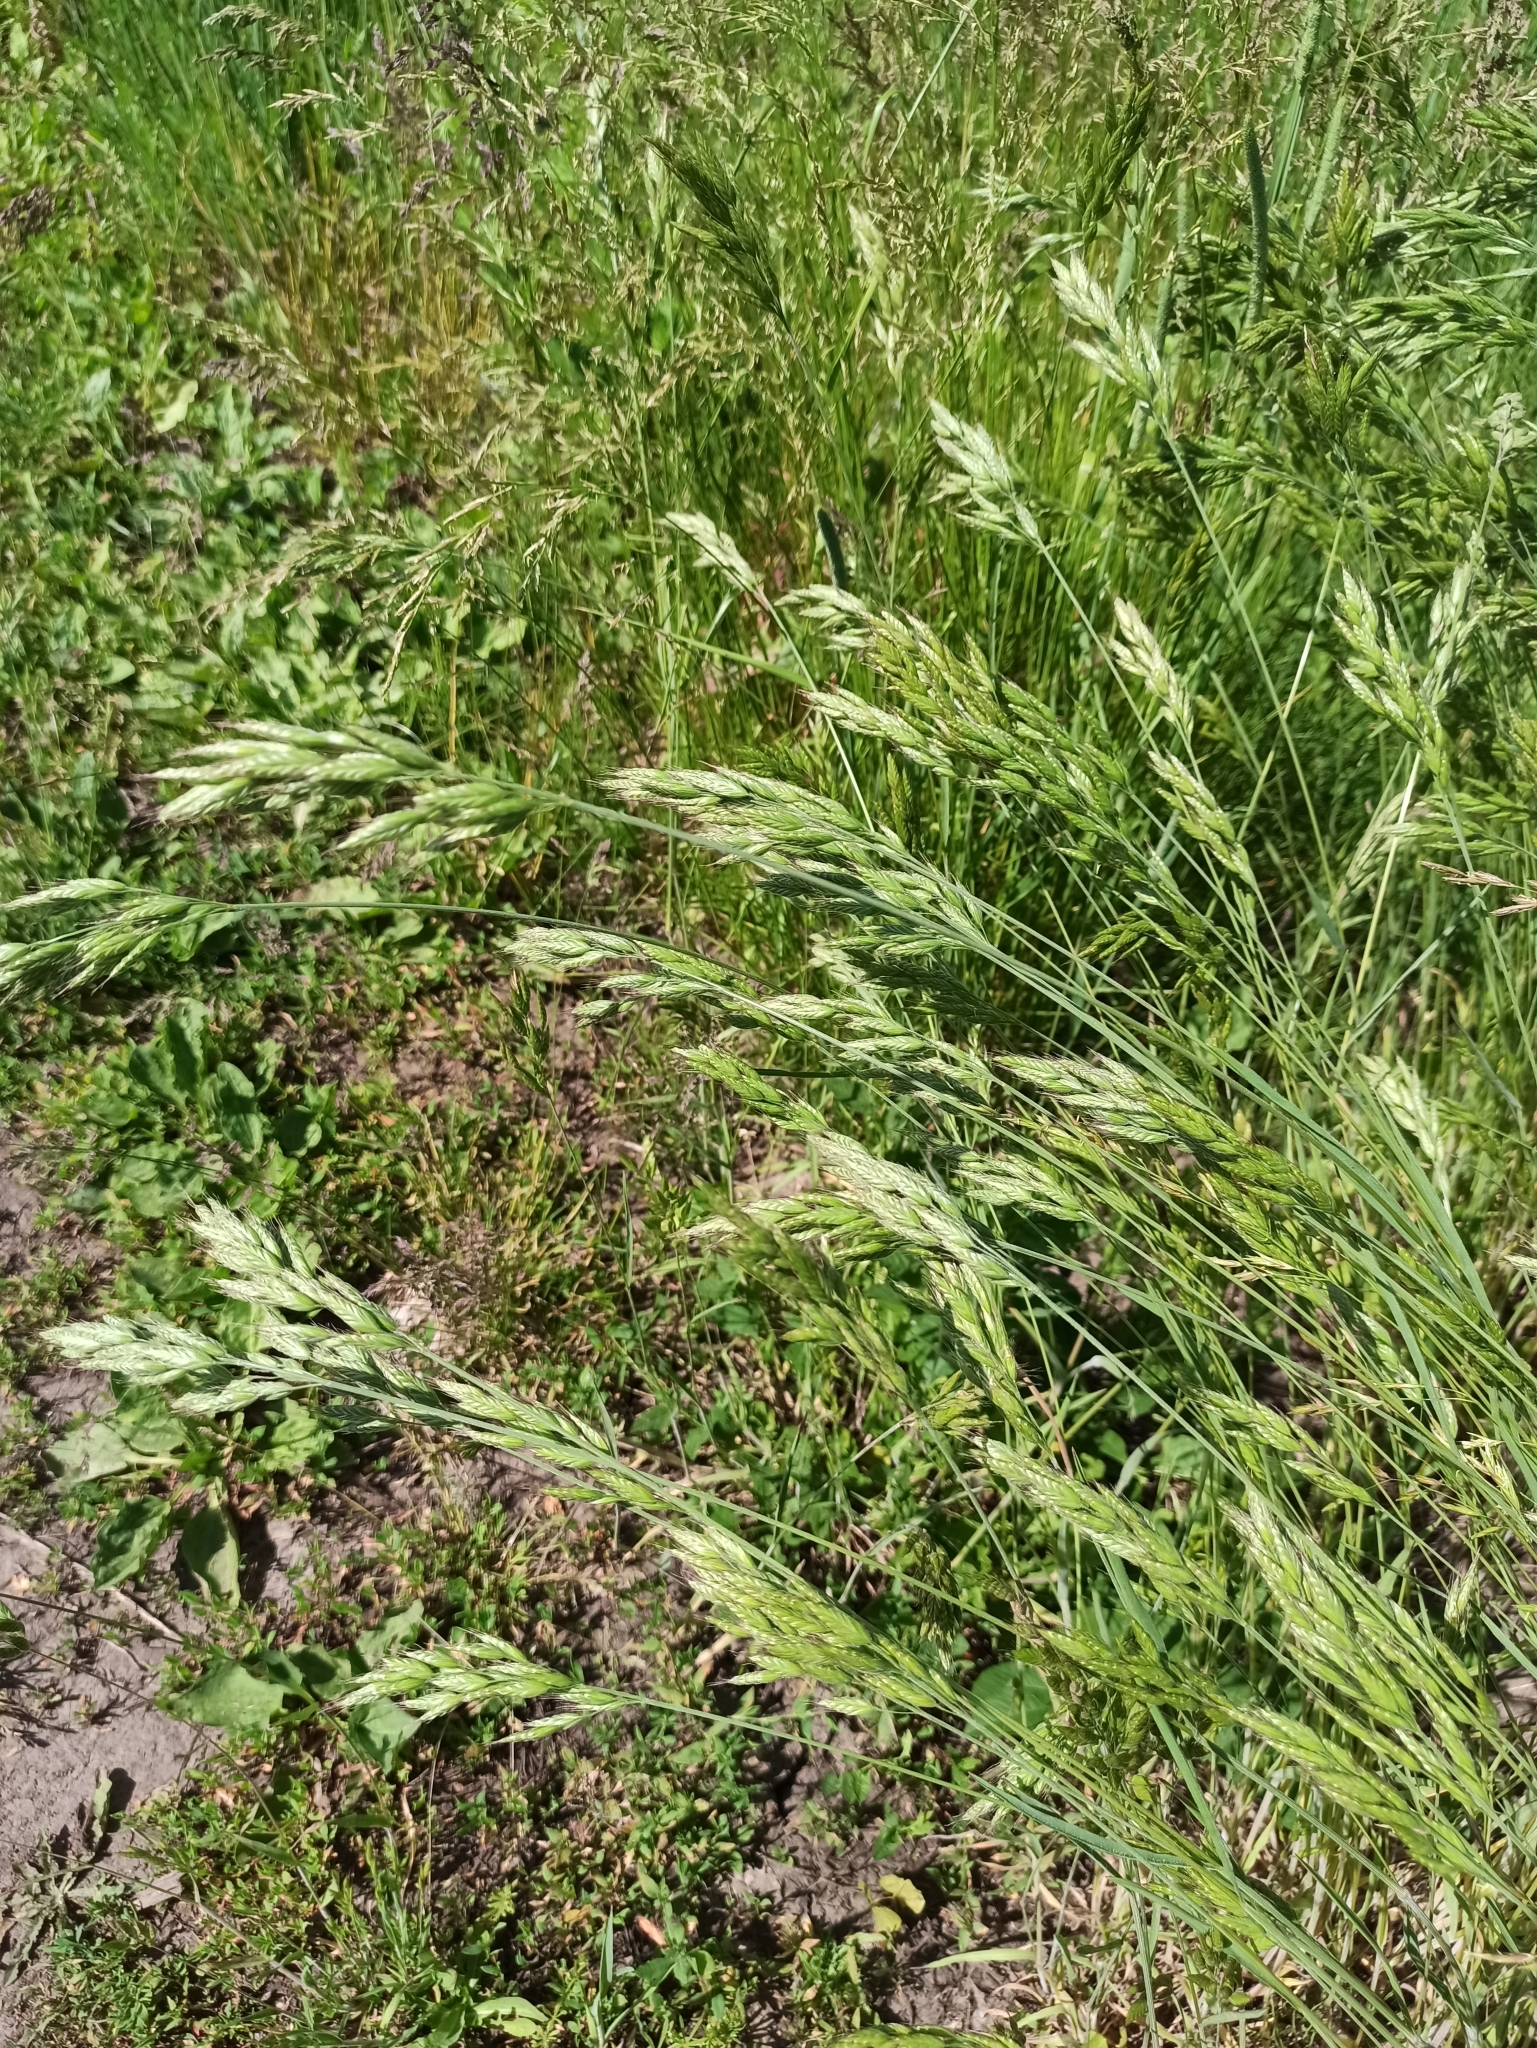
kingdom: Plantae
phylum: Tracheophyta
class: Liliopsida
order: Poales
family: Poaceae
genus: Bromus
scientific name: Bromus hordeaceus
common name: Soft brome
